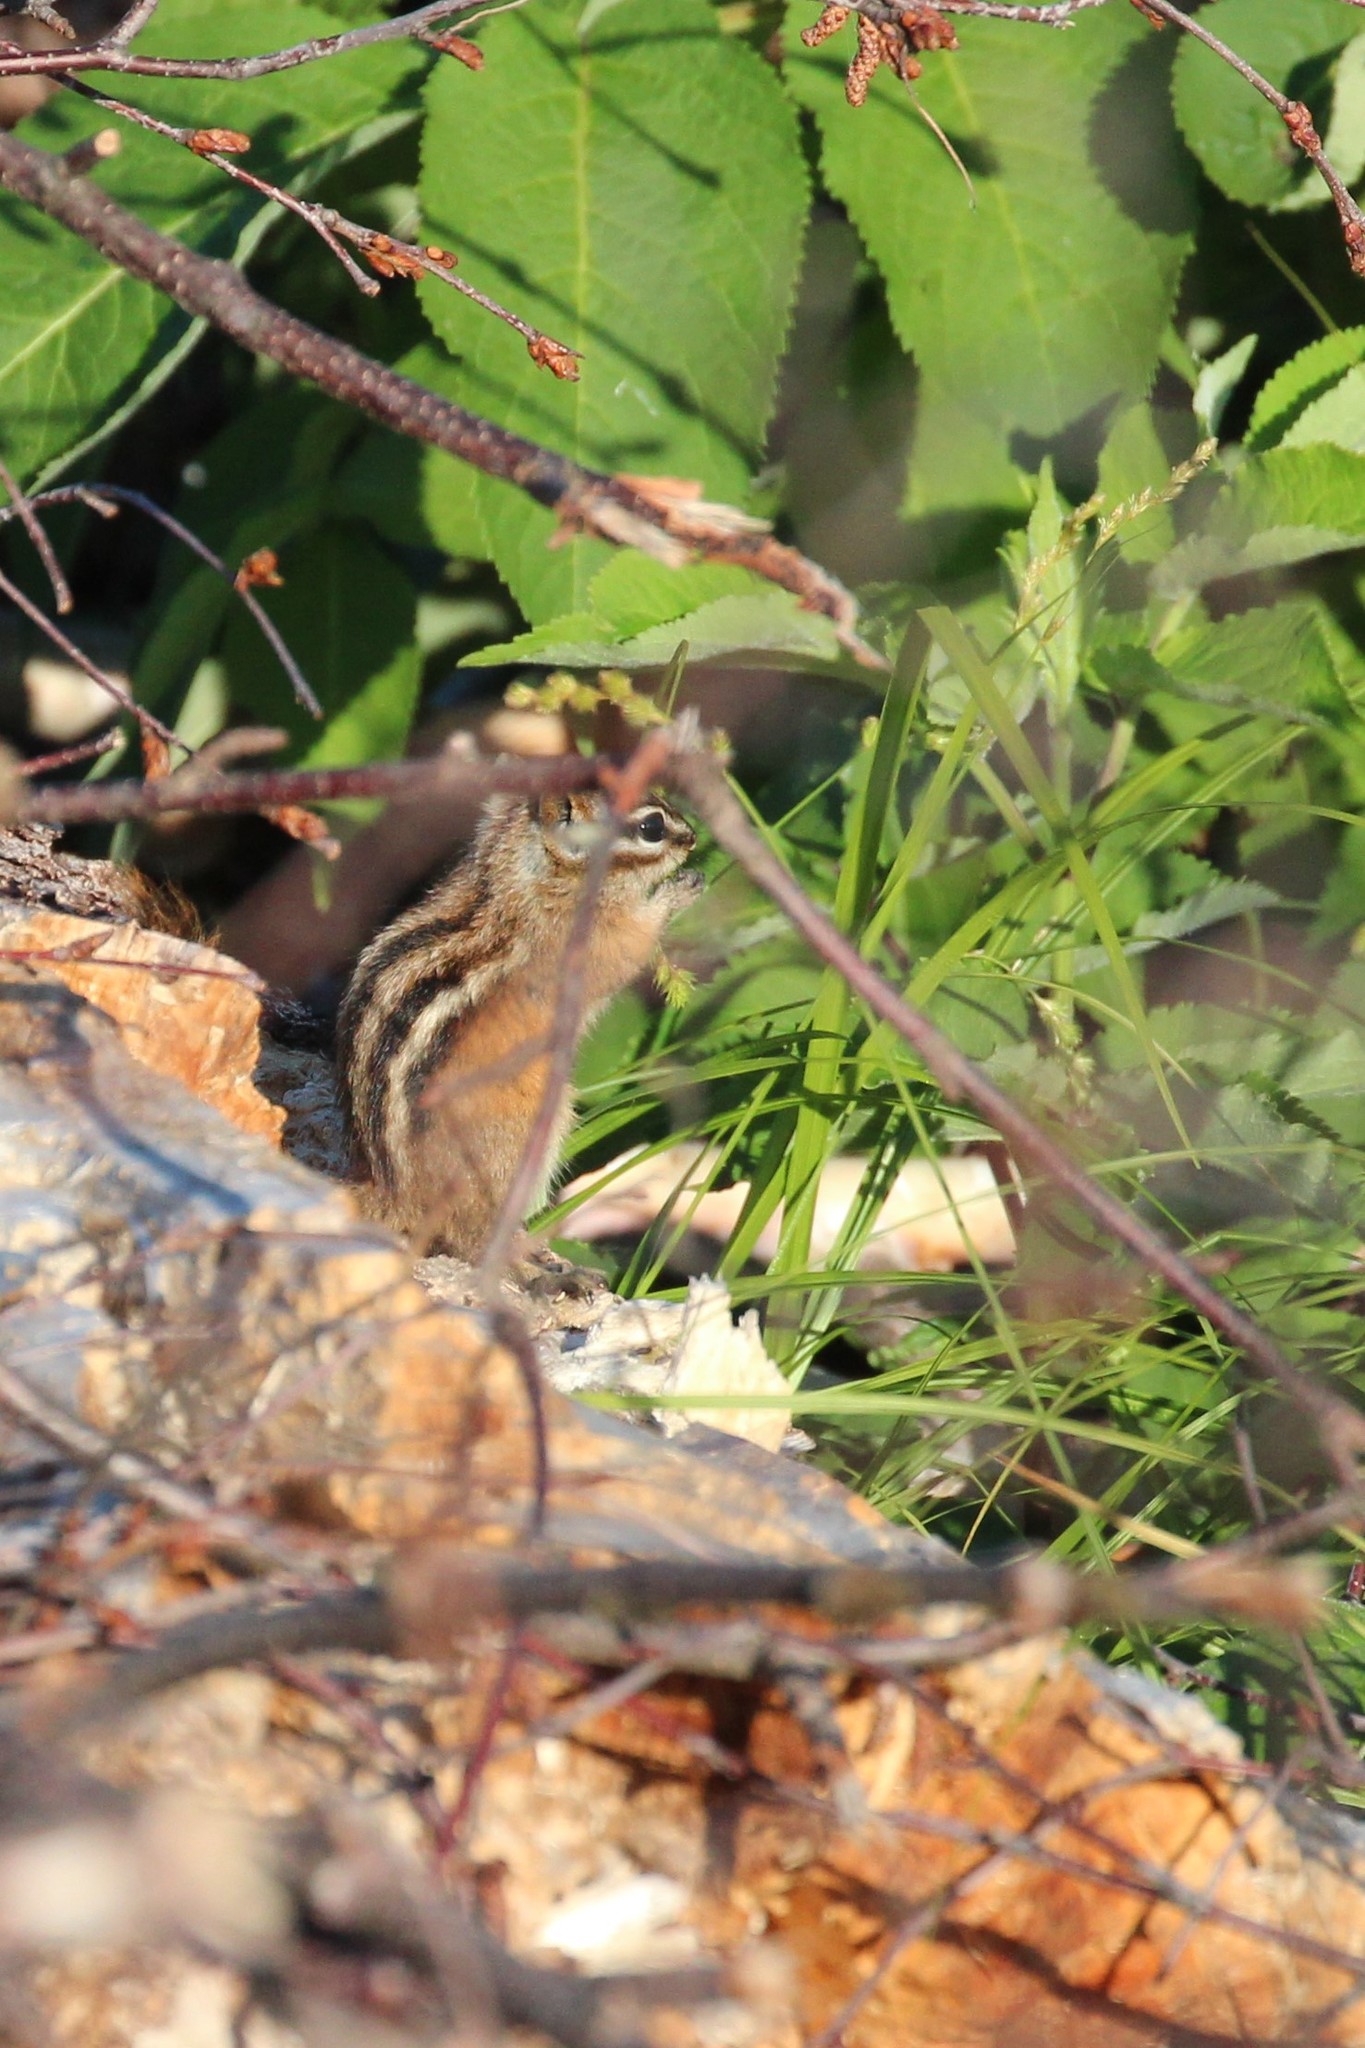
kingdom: Animalia
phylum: Chordata
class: Mammalia
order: Rodentia
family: Sciuridae
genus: Tamias
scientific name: Tamias minimus
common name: Least chipmunk
